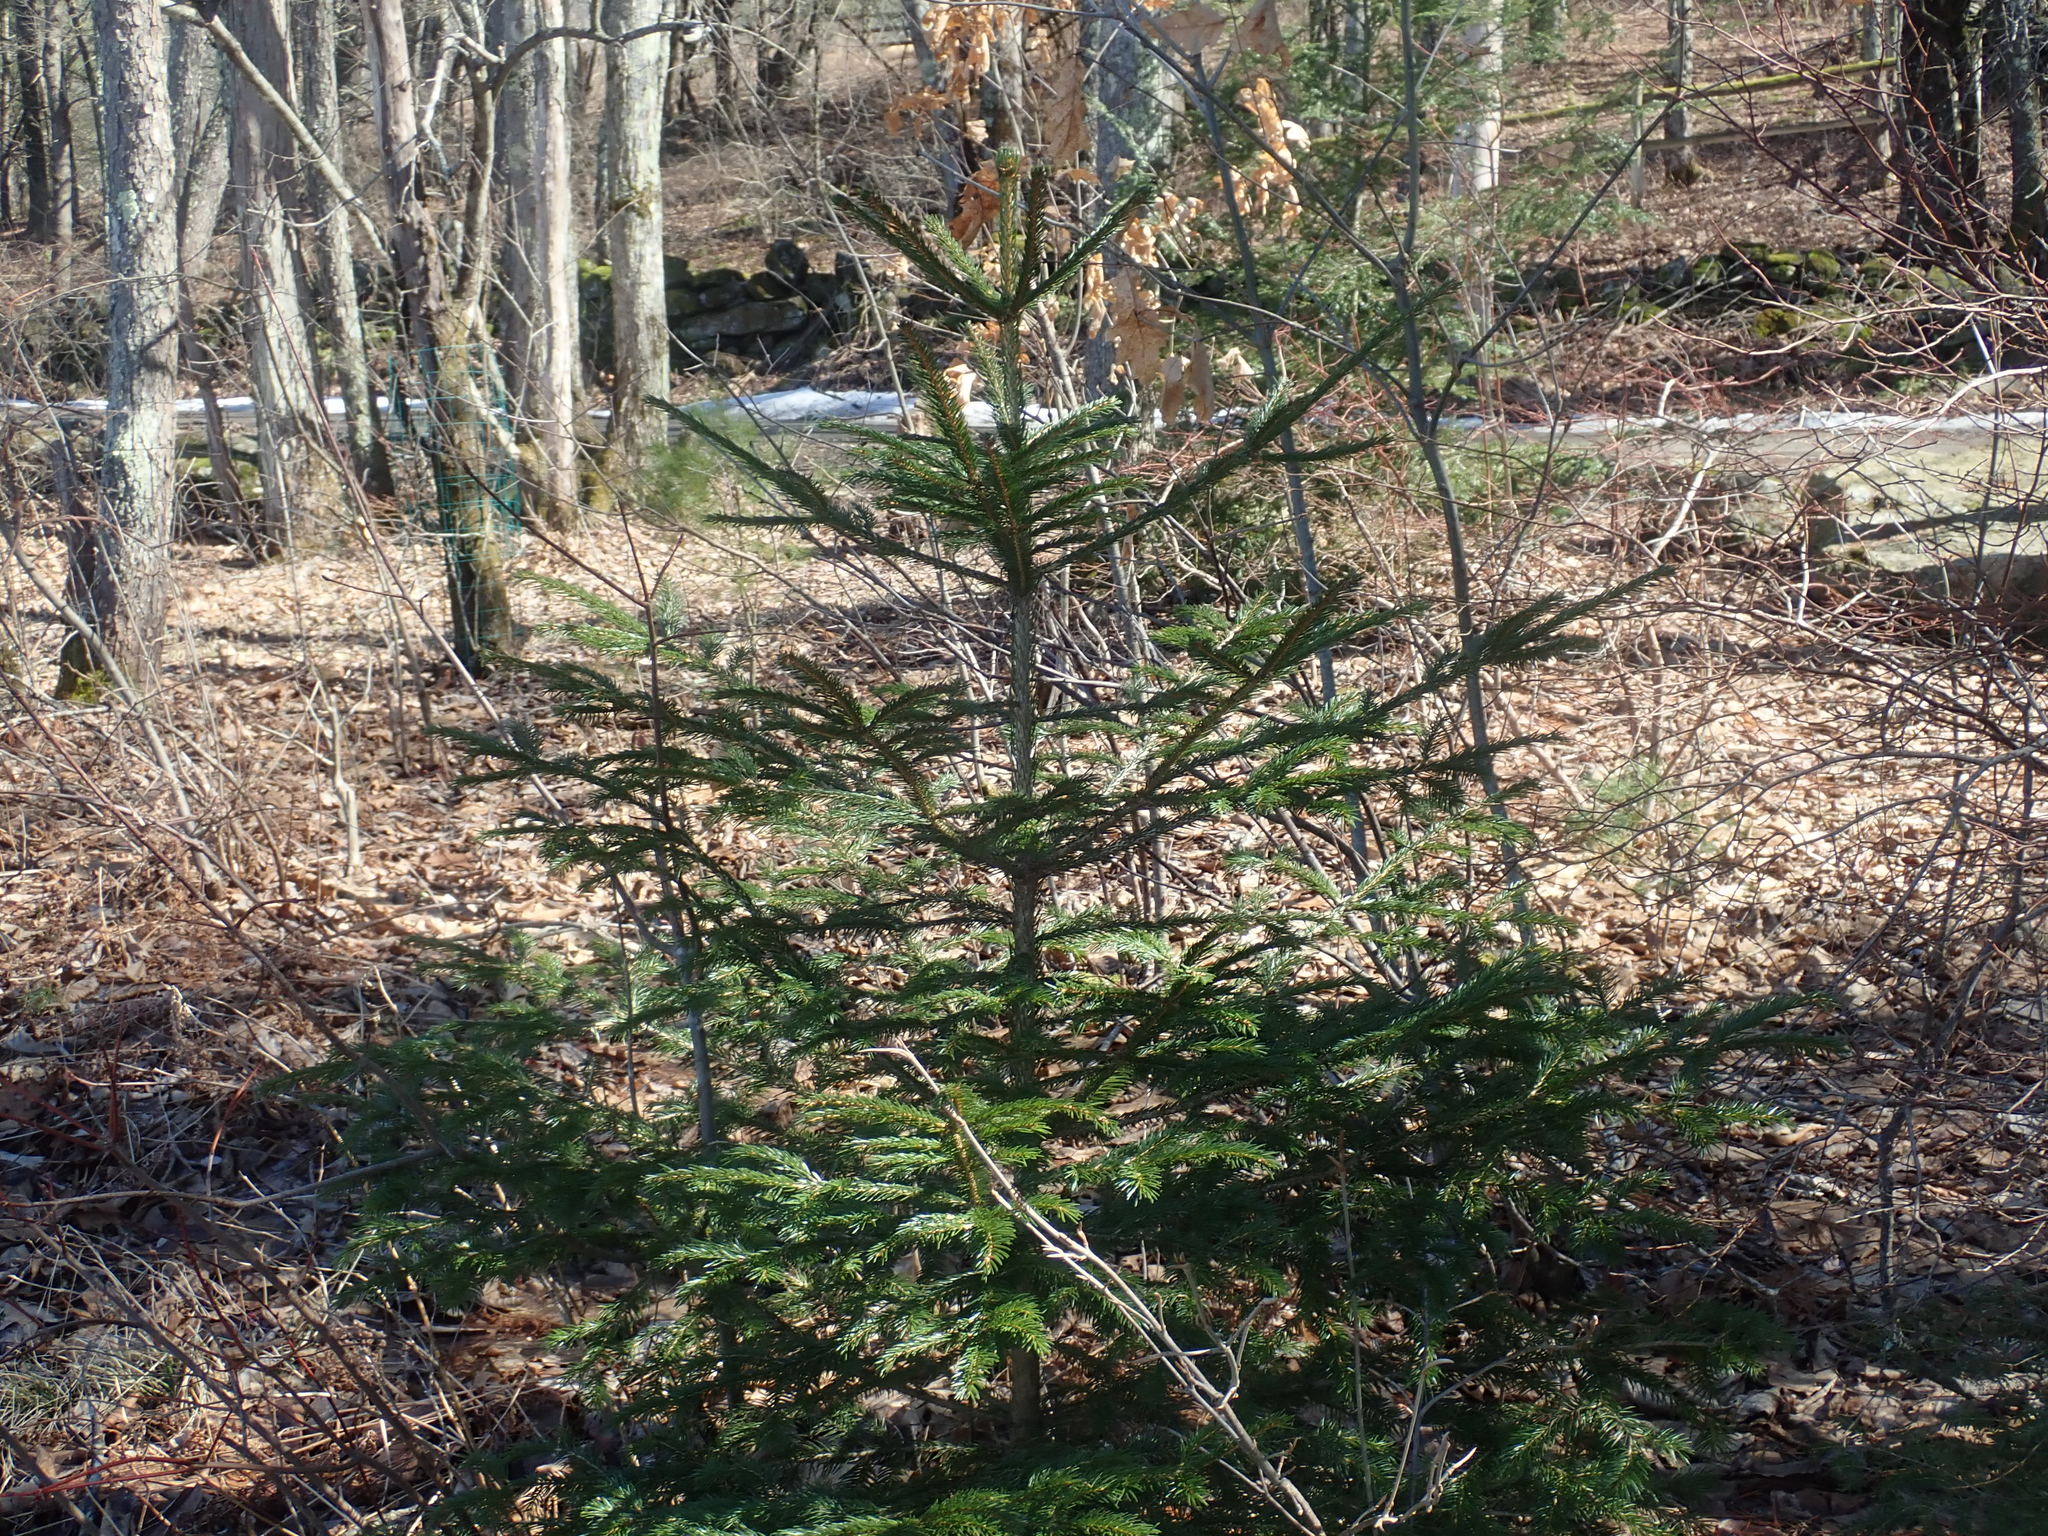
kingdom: Plantae
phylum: Tracheophyta
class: Pinopsida
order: Pinales
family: Pinaceae
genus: Picea
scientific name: Picea abies
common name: Norway spruce
